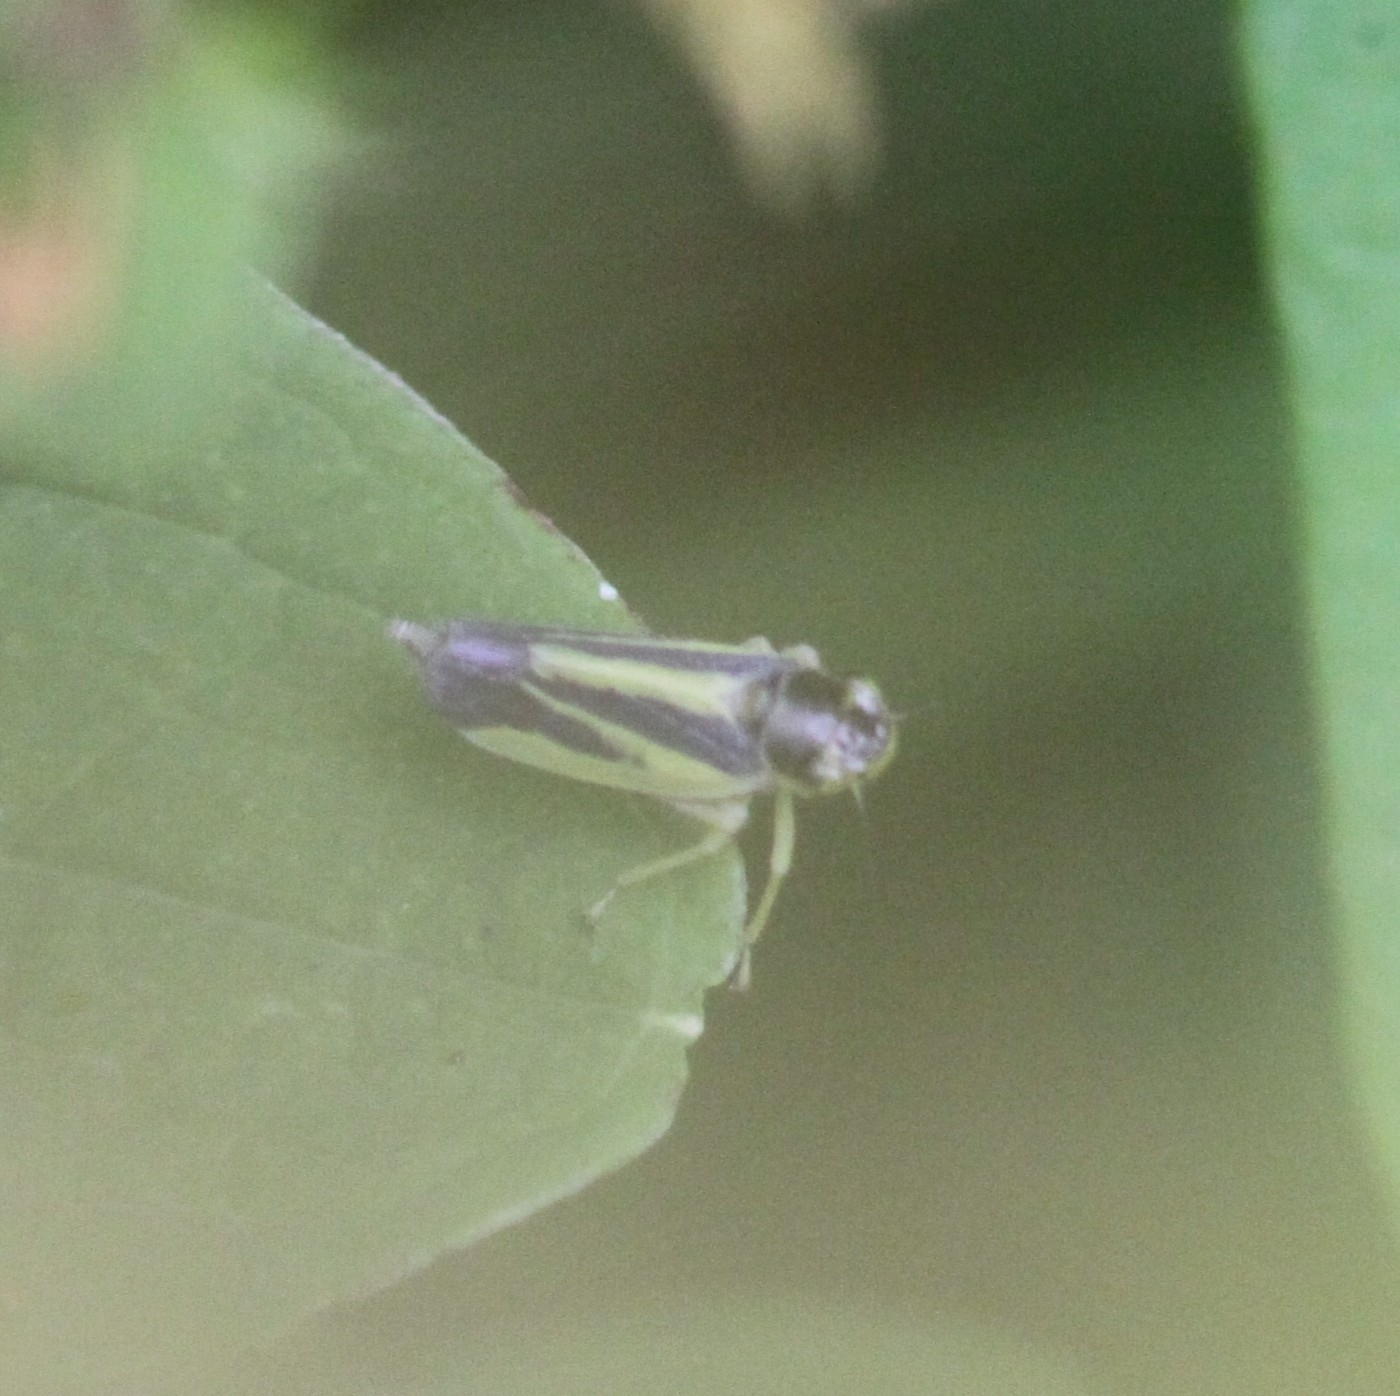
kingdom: Animalia
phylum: Arthropoda
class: Insecta
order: Hemiptera
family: Cicadellidae
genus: Evacanthus
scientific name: Evacanthus interruptus
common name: Leafhopper
